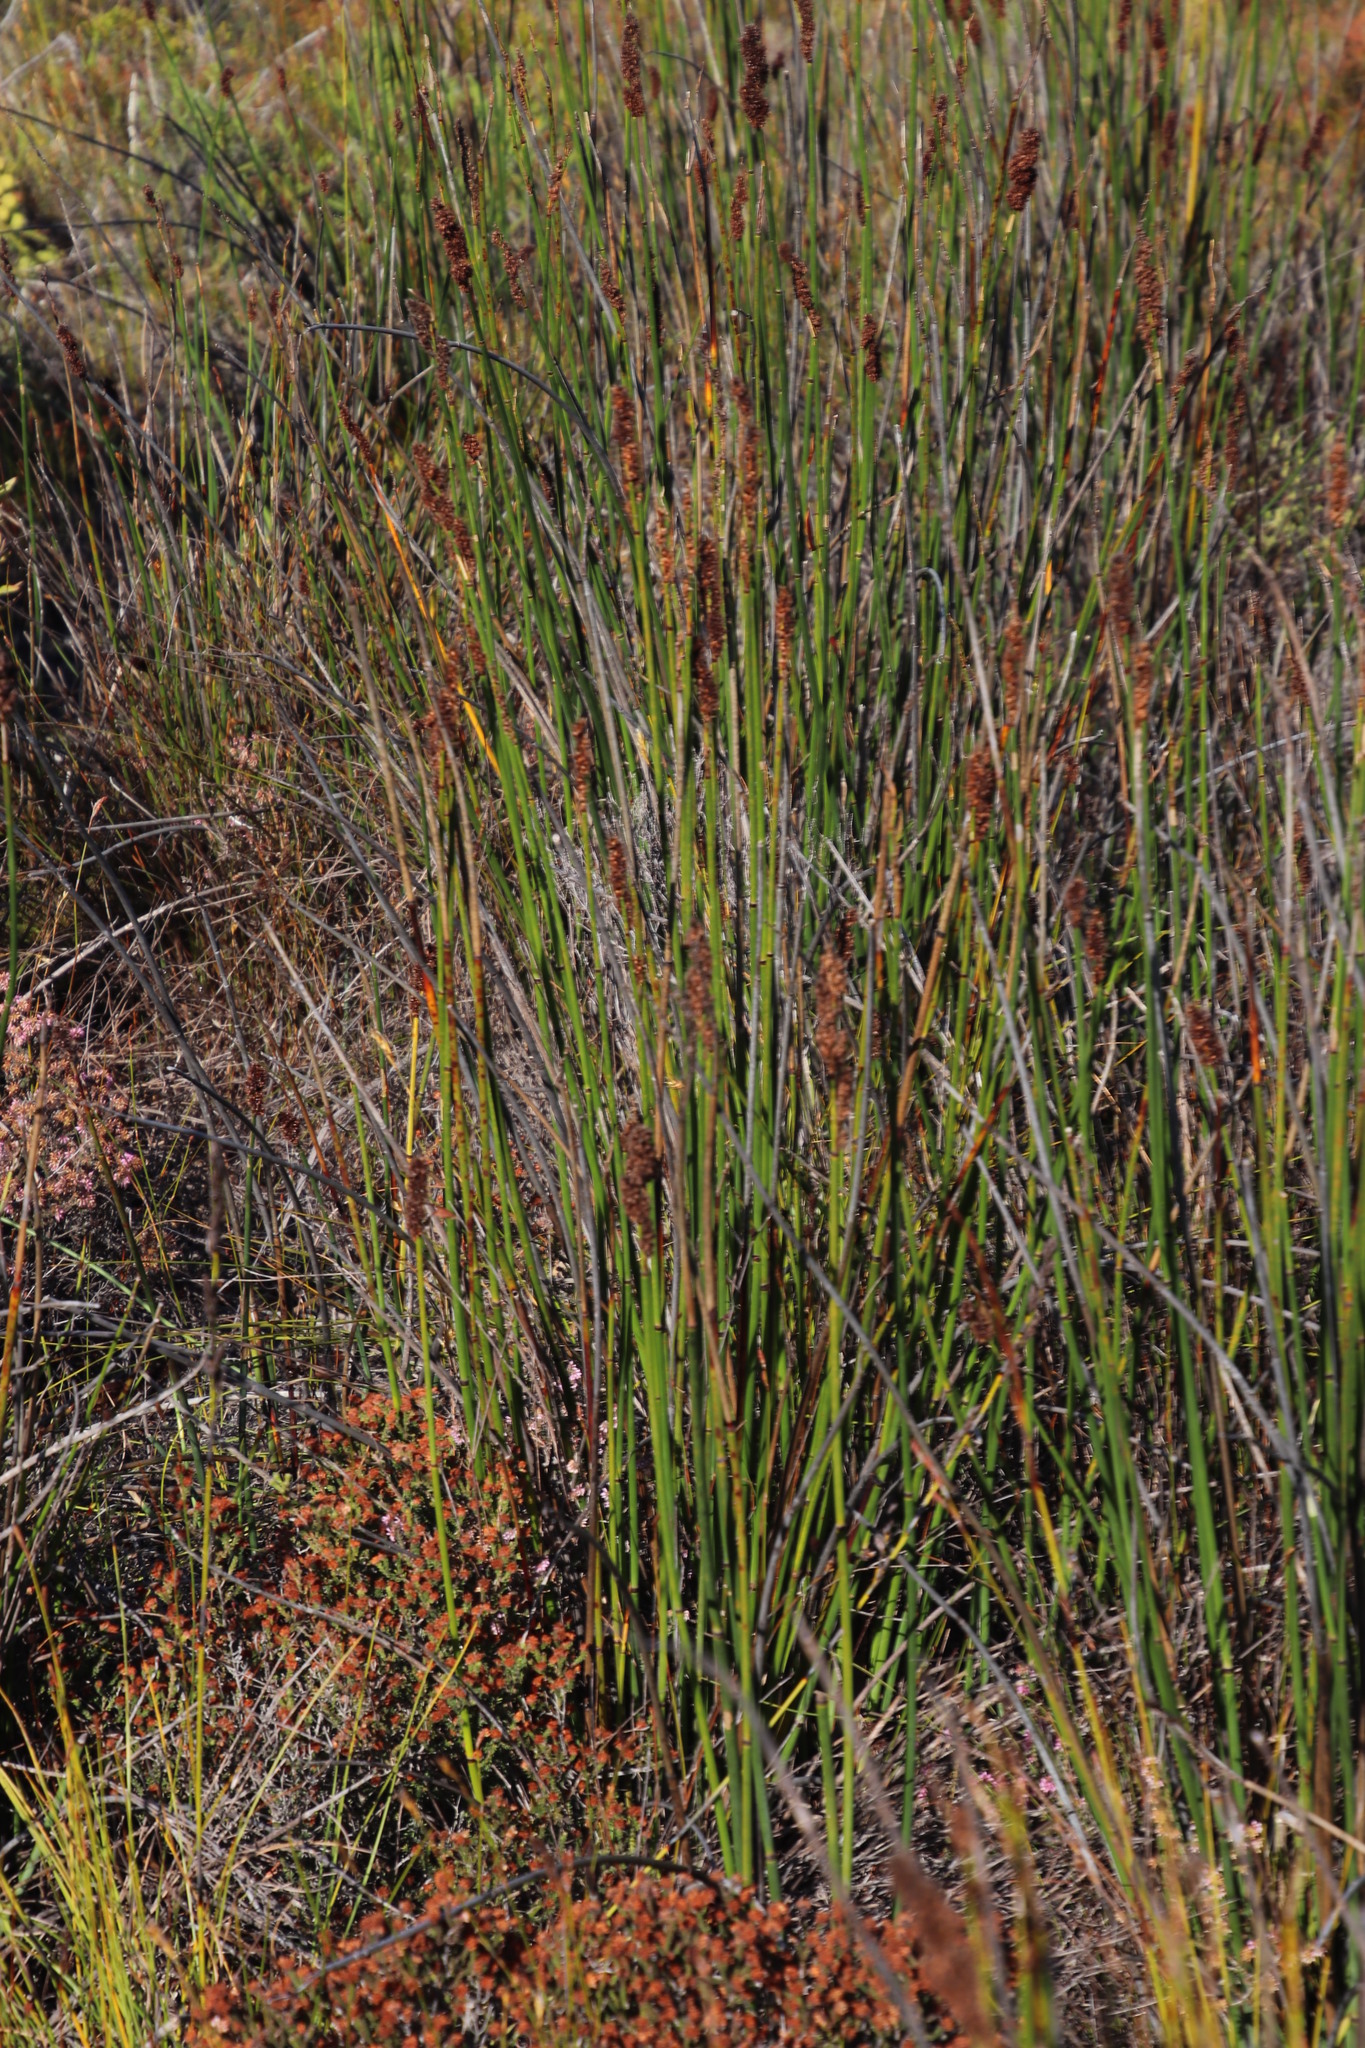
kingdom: Plantae
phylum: Tracheophyta
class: Liliopsida
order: Poales
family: Restionaceae
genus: Elegia
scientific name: Elegia nuda
